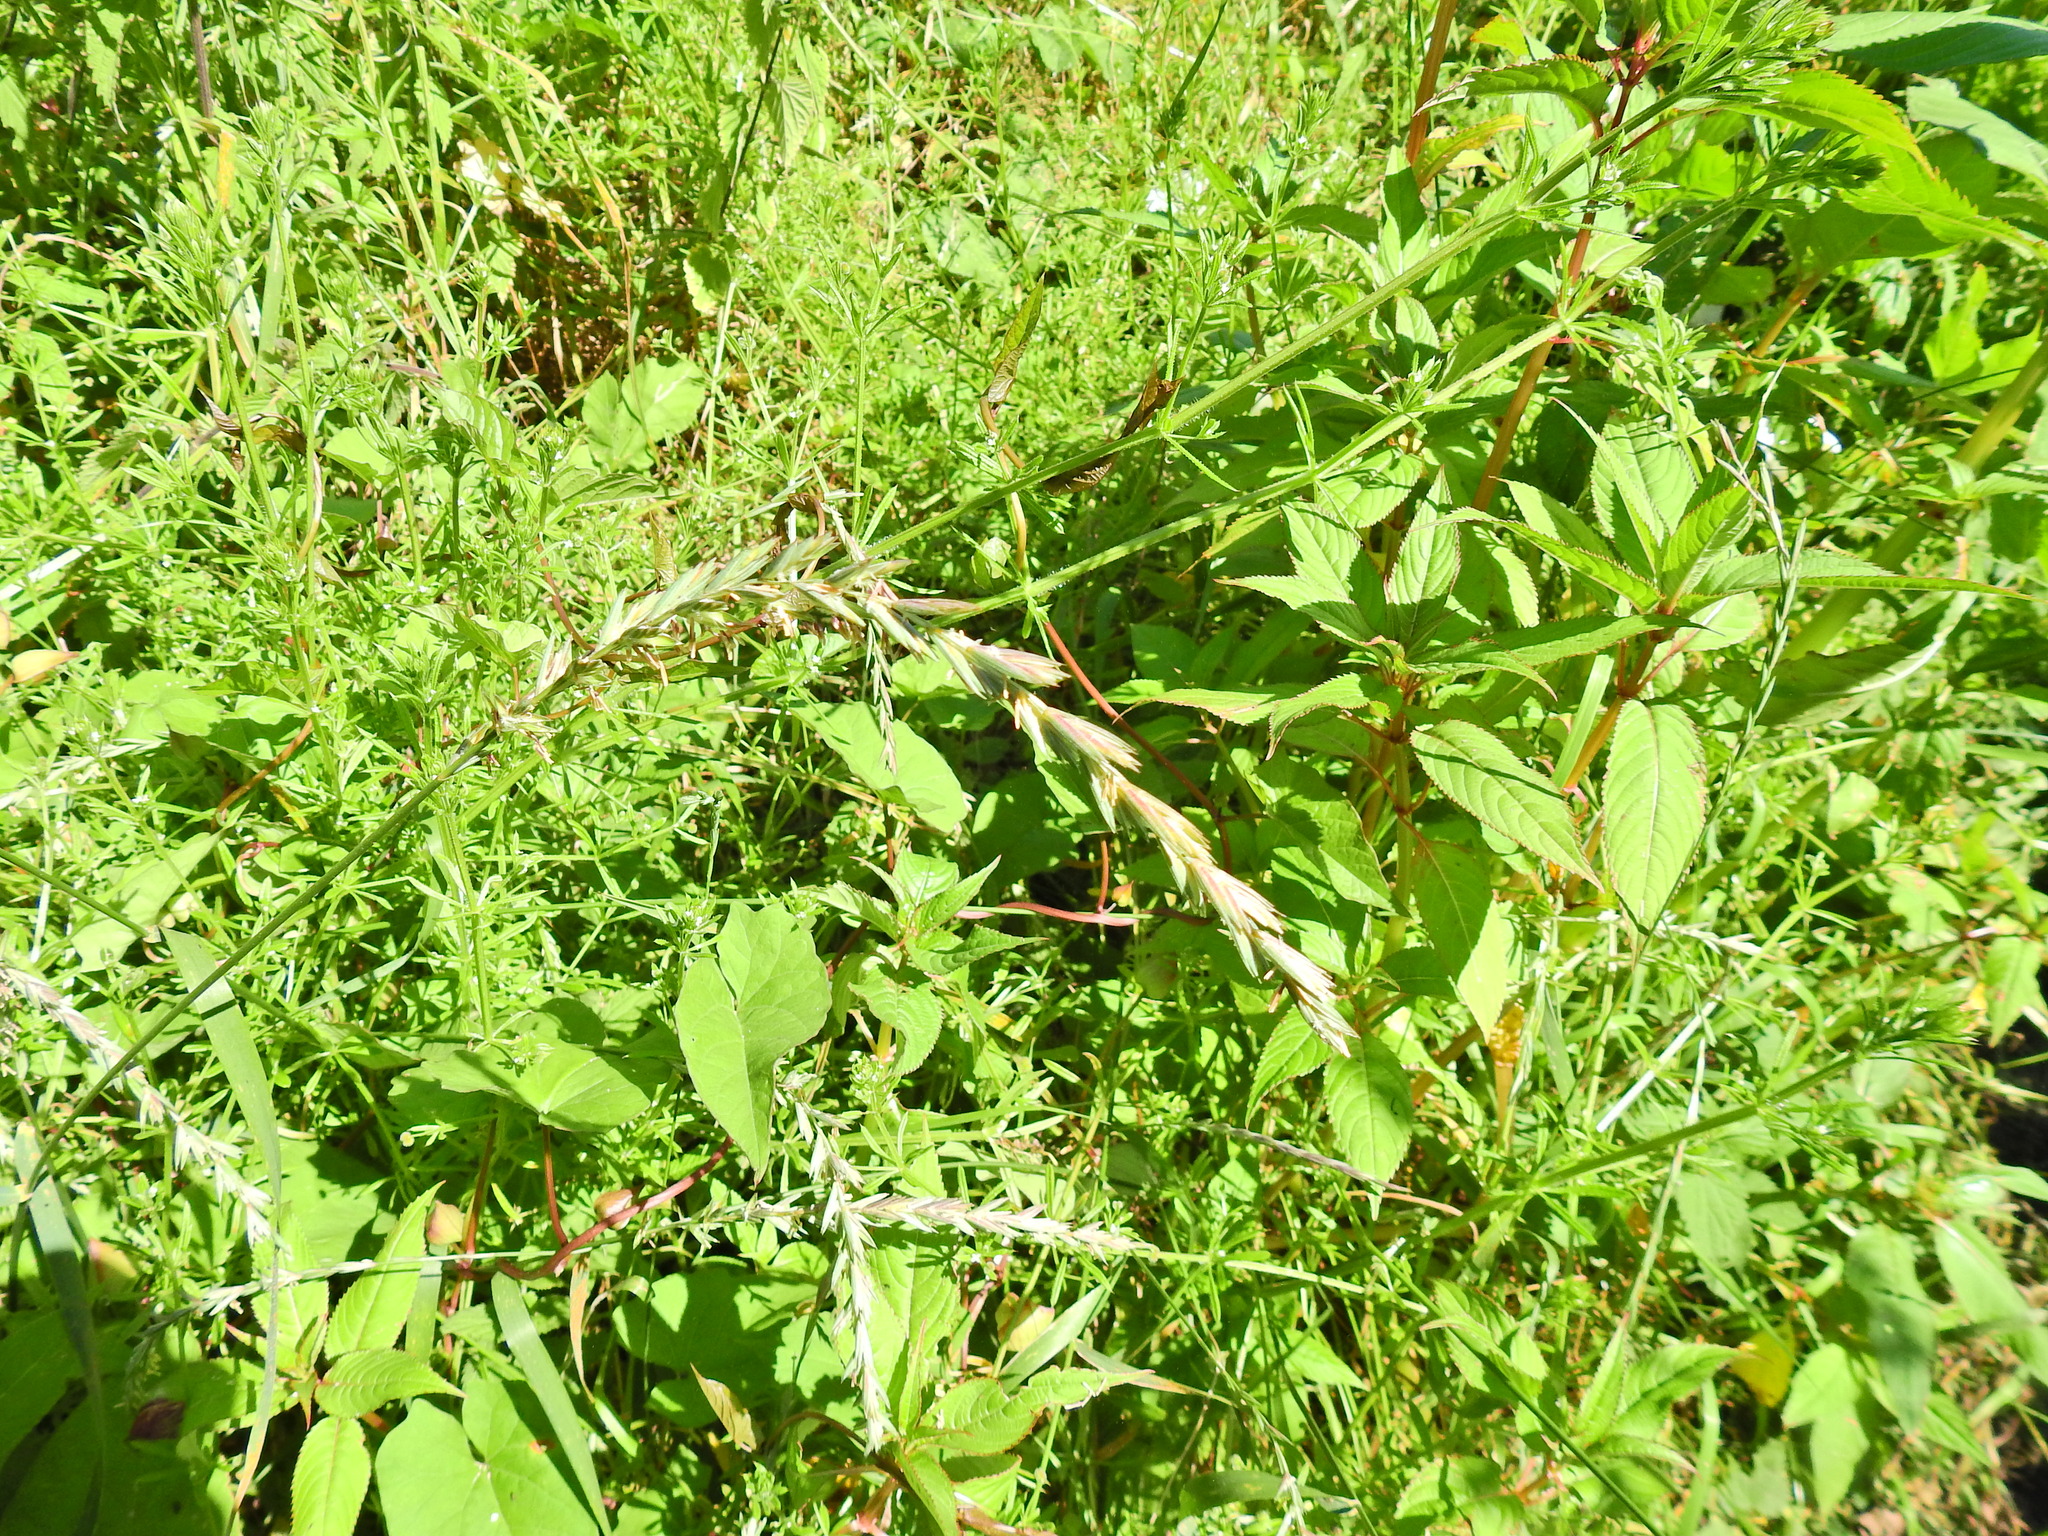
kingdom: Plantae
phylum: Tracheophyta
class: Liliopsida
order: Poales
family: Poaceae
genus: Lolium
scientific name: Lolium perenne
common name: Perennial ryegrass
